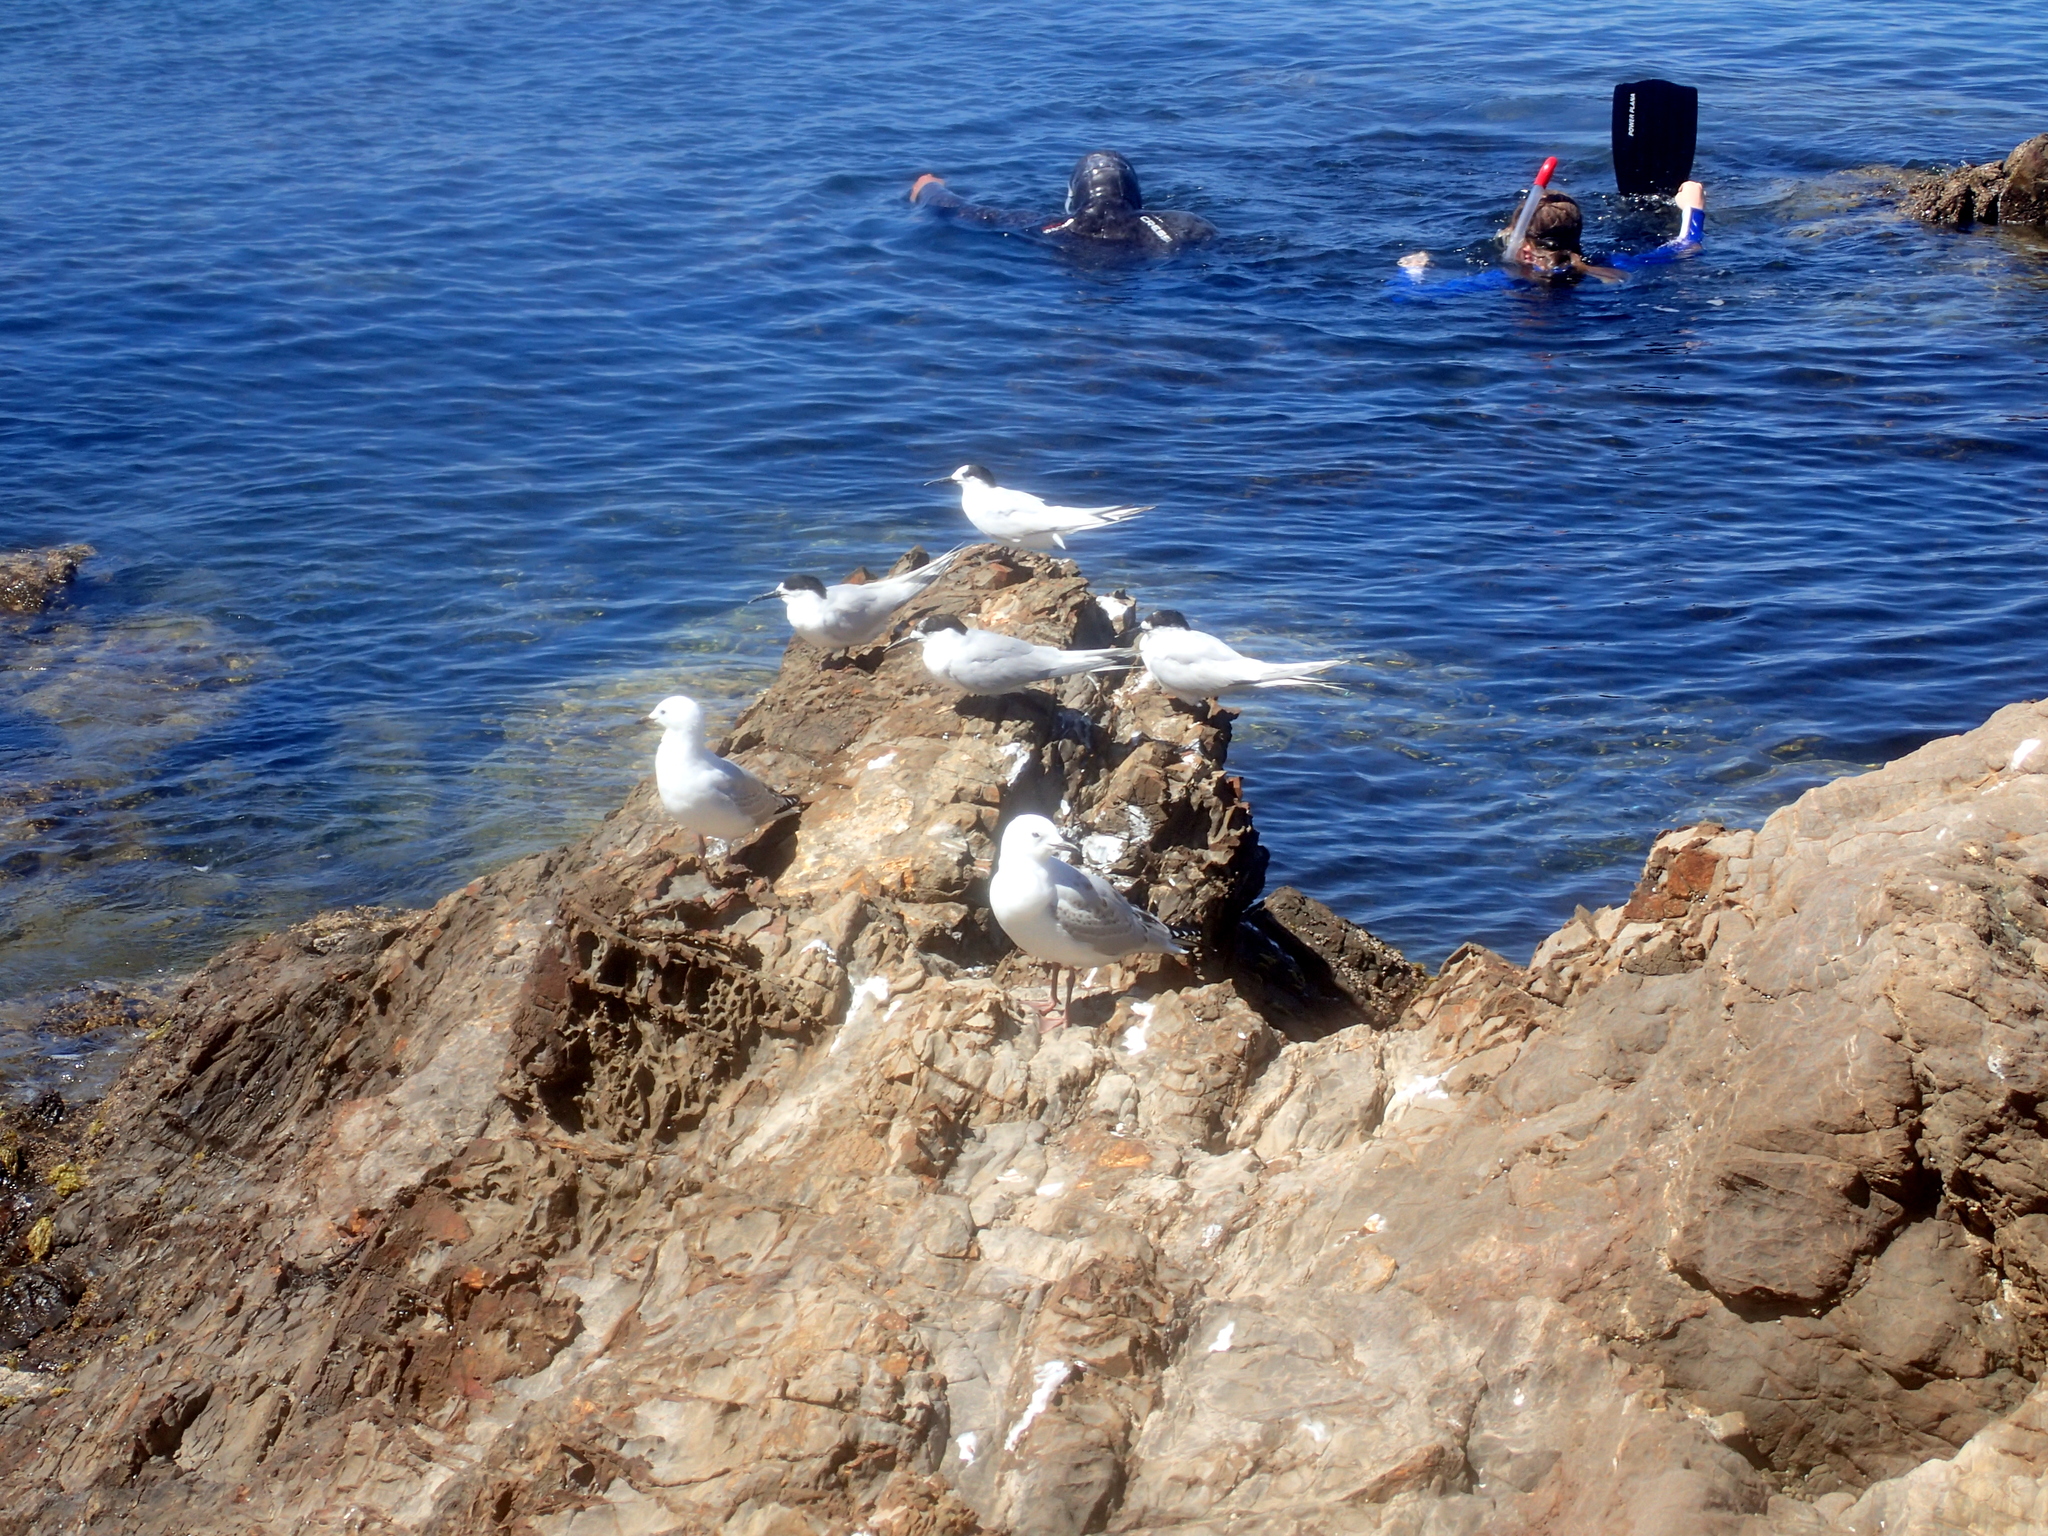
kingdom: Animalia
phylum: Chordata
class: Aves
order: Charadriiformes
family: Laridae
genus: Sterna
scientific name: Sterna striata
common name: White-fronted tern
